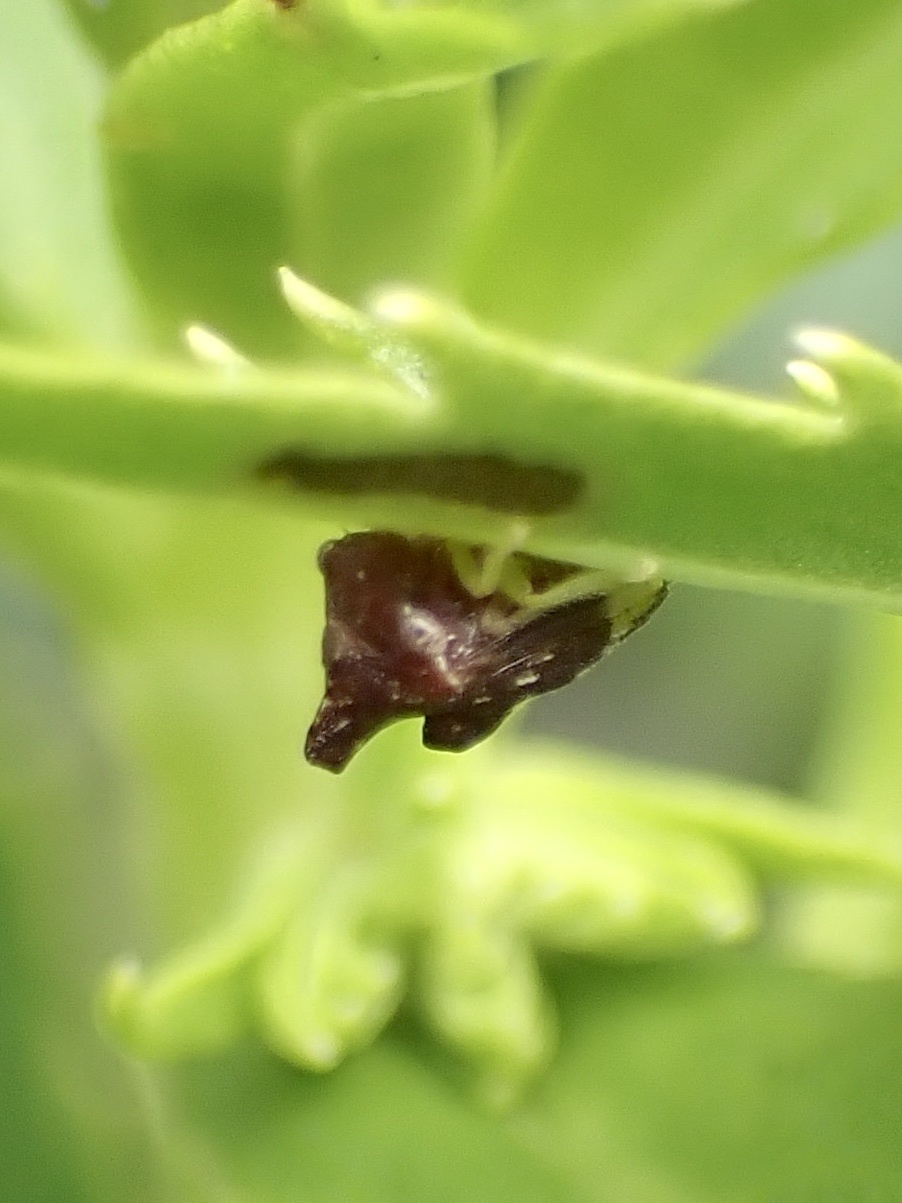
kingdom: Animalia
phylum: Arthropoda
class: Insecta
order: Hemiptera
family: Membracidae
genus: Entylia
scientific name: Entylia carinata
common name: Keeled treehopper
